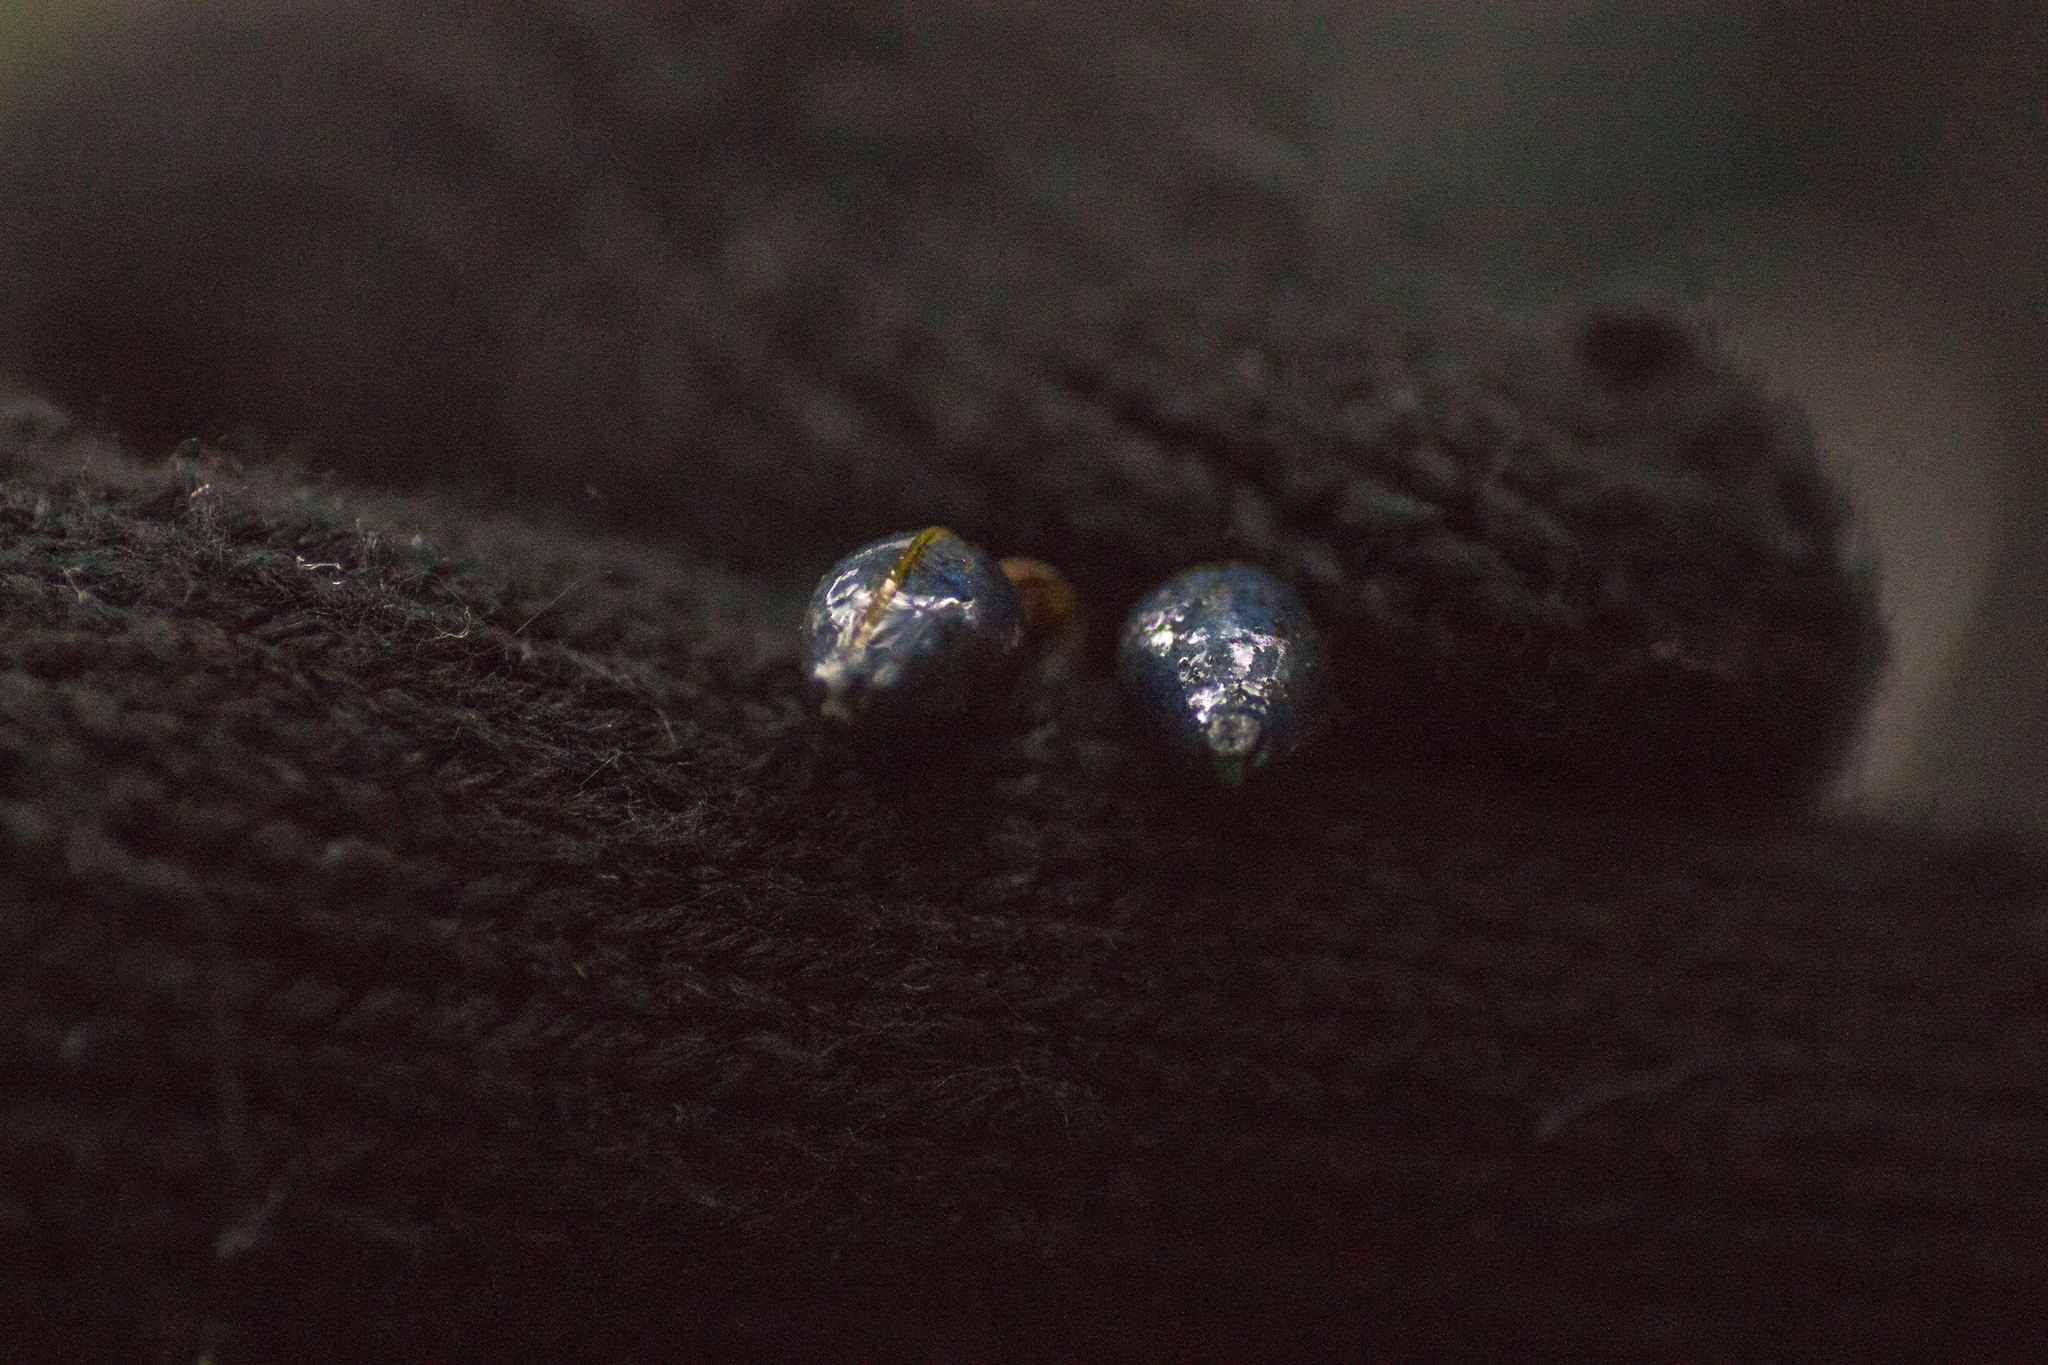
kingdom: Plantae
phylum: Tracheophyta
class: Magnoliopsida
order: Dipsacales
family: Viburnaceae
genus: Viburnum
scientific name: Viburnum rugosum
